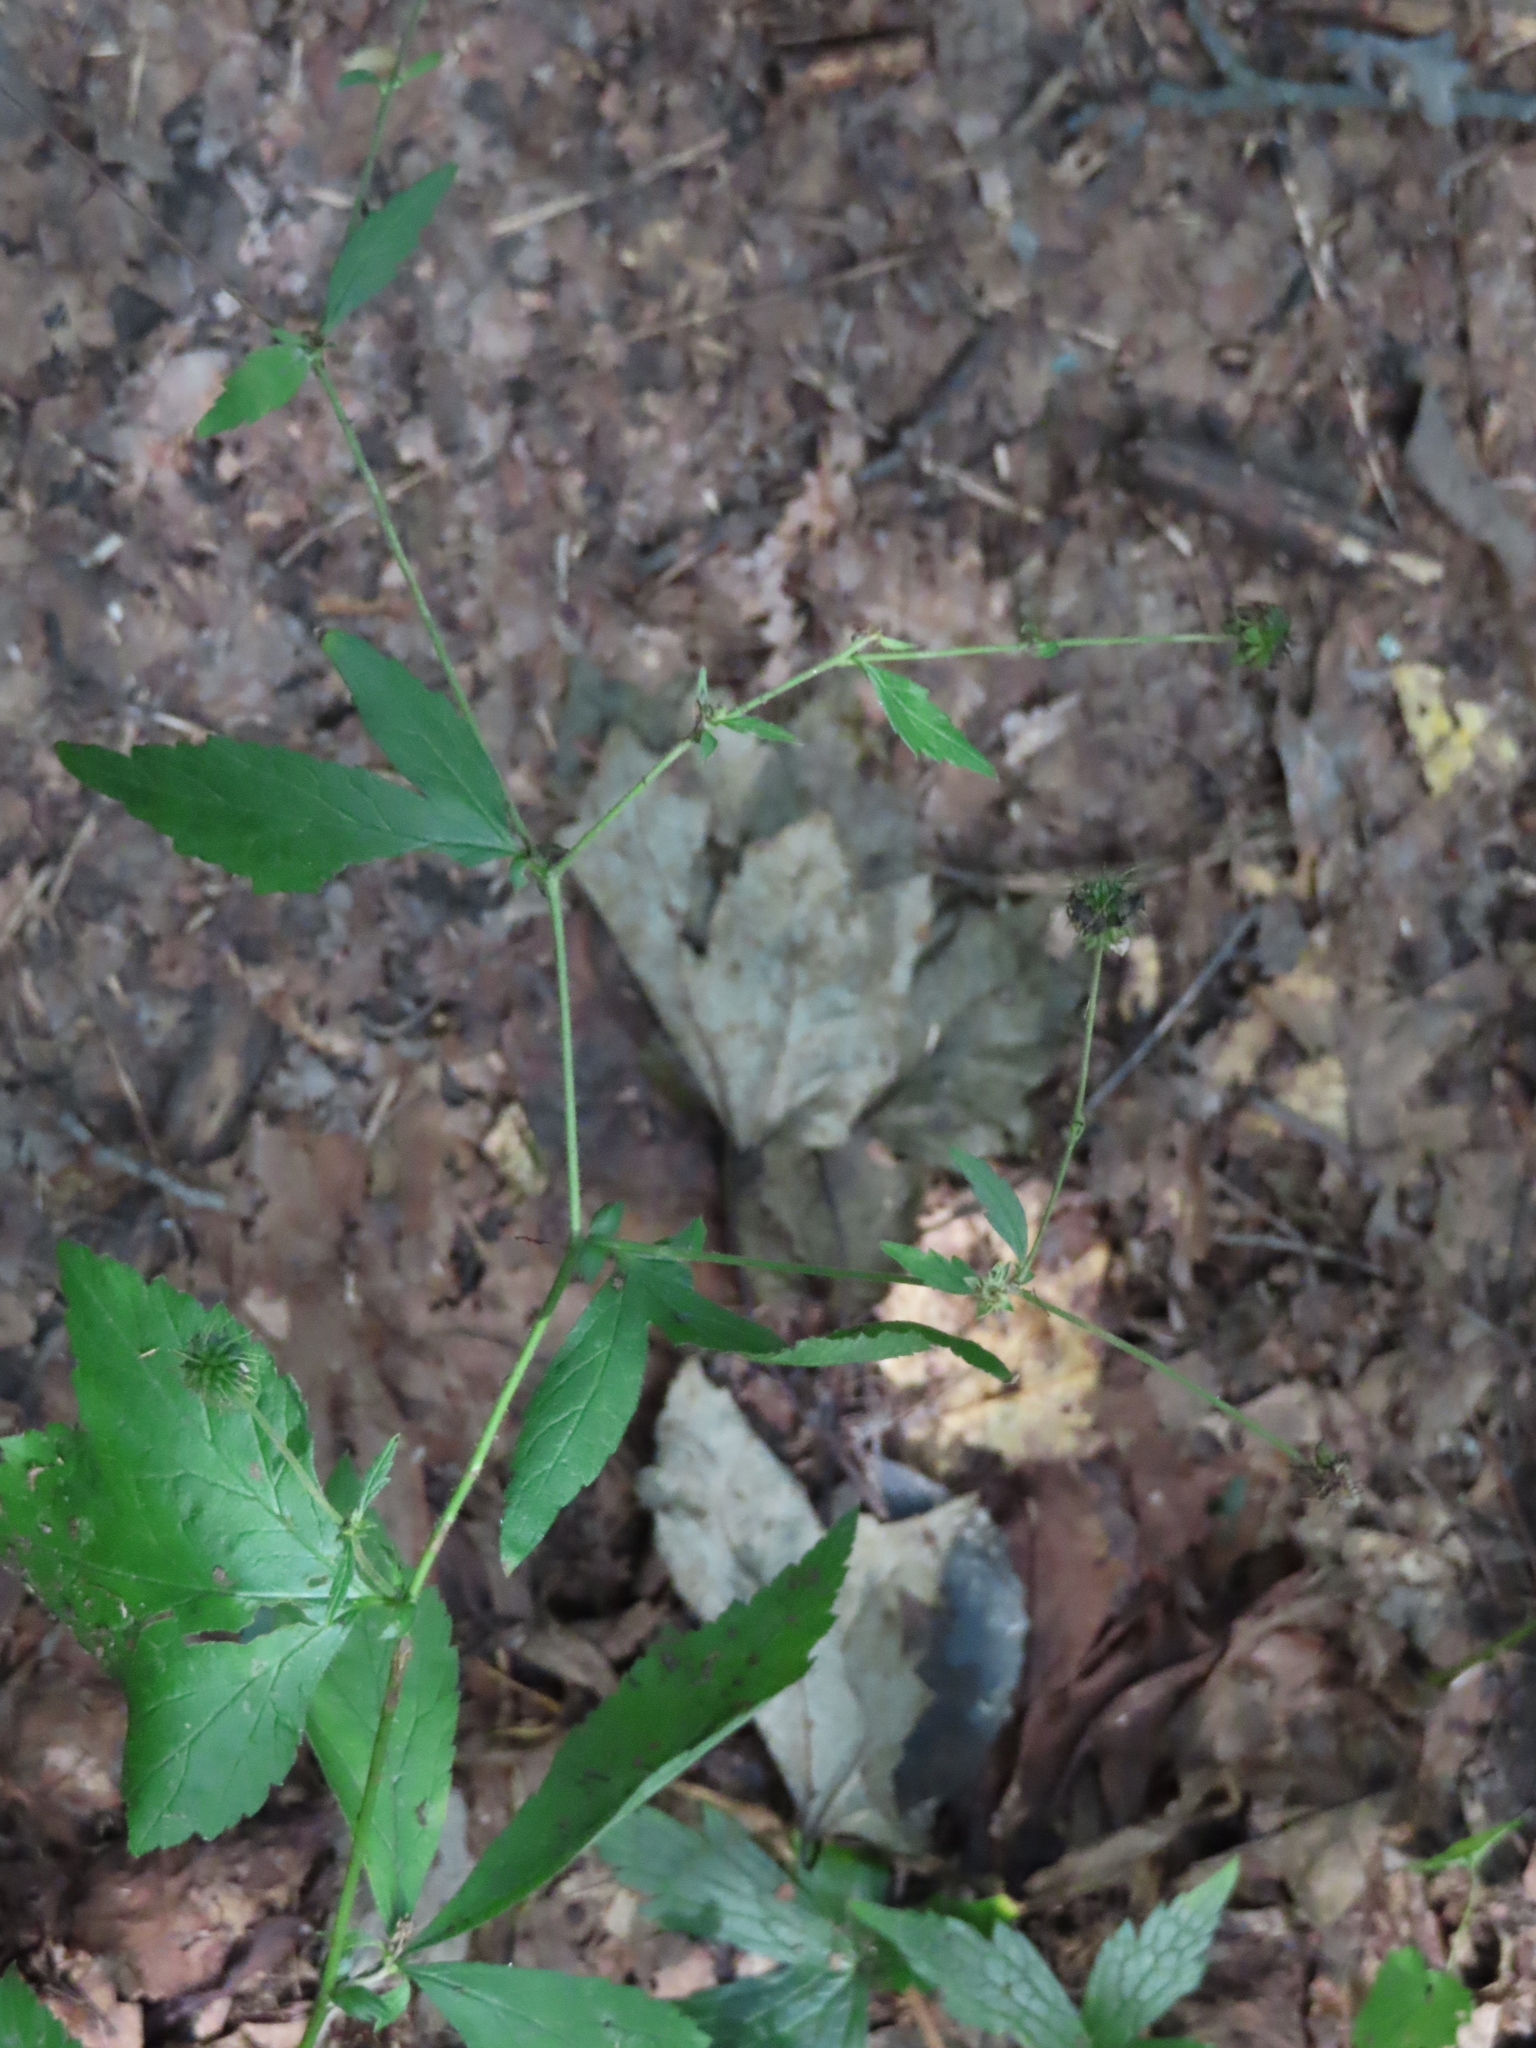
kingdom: Plantae
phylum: Tracheophyta
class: Magnoliopsida
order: Rosales
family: Rosaceae
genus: Geum
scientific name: Geum canadense
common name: White avens
